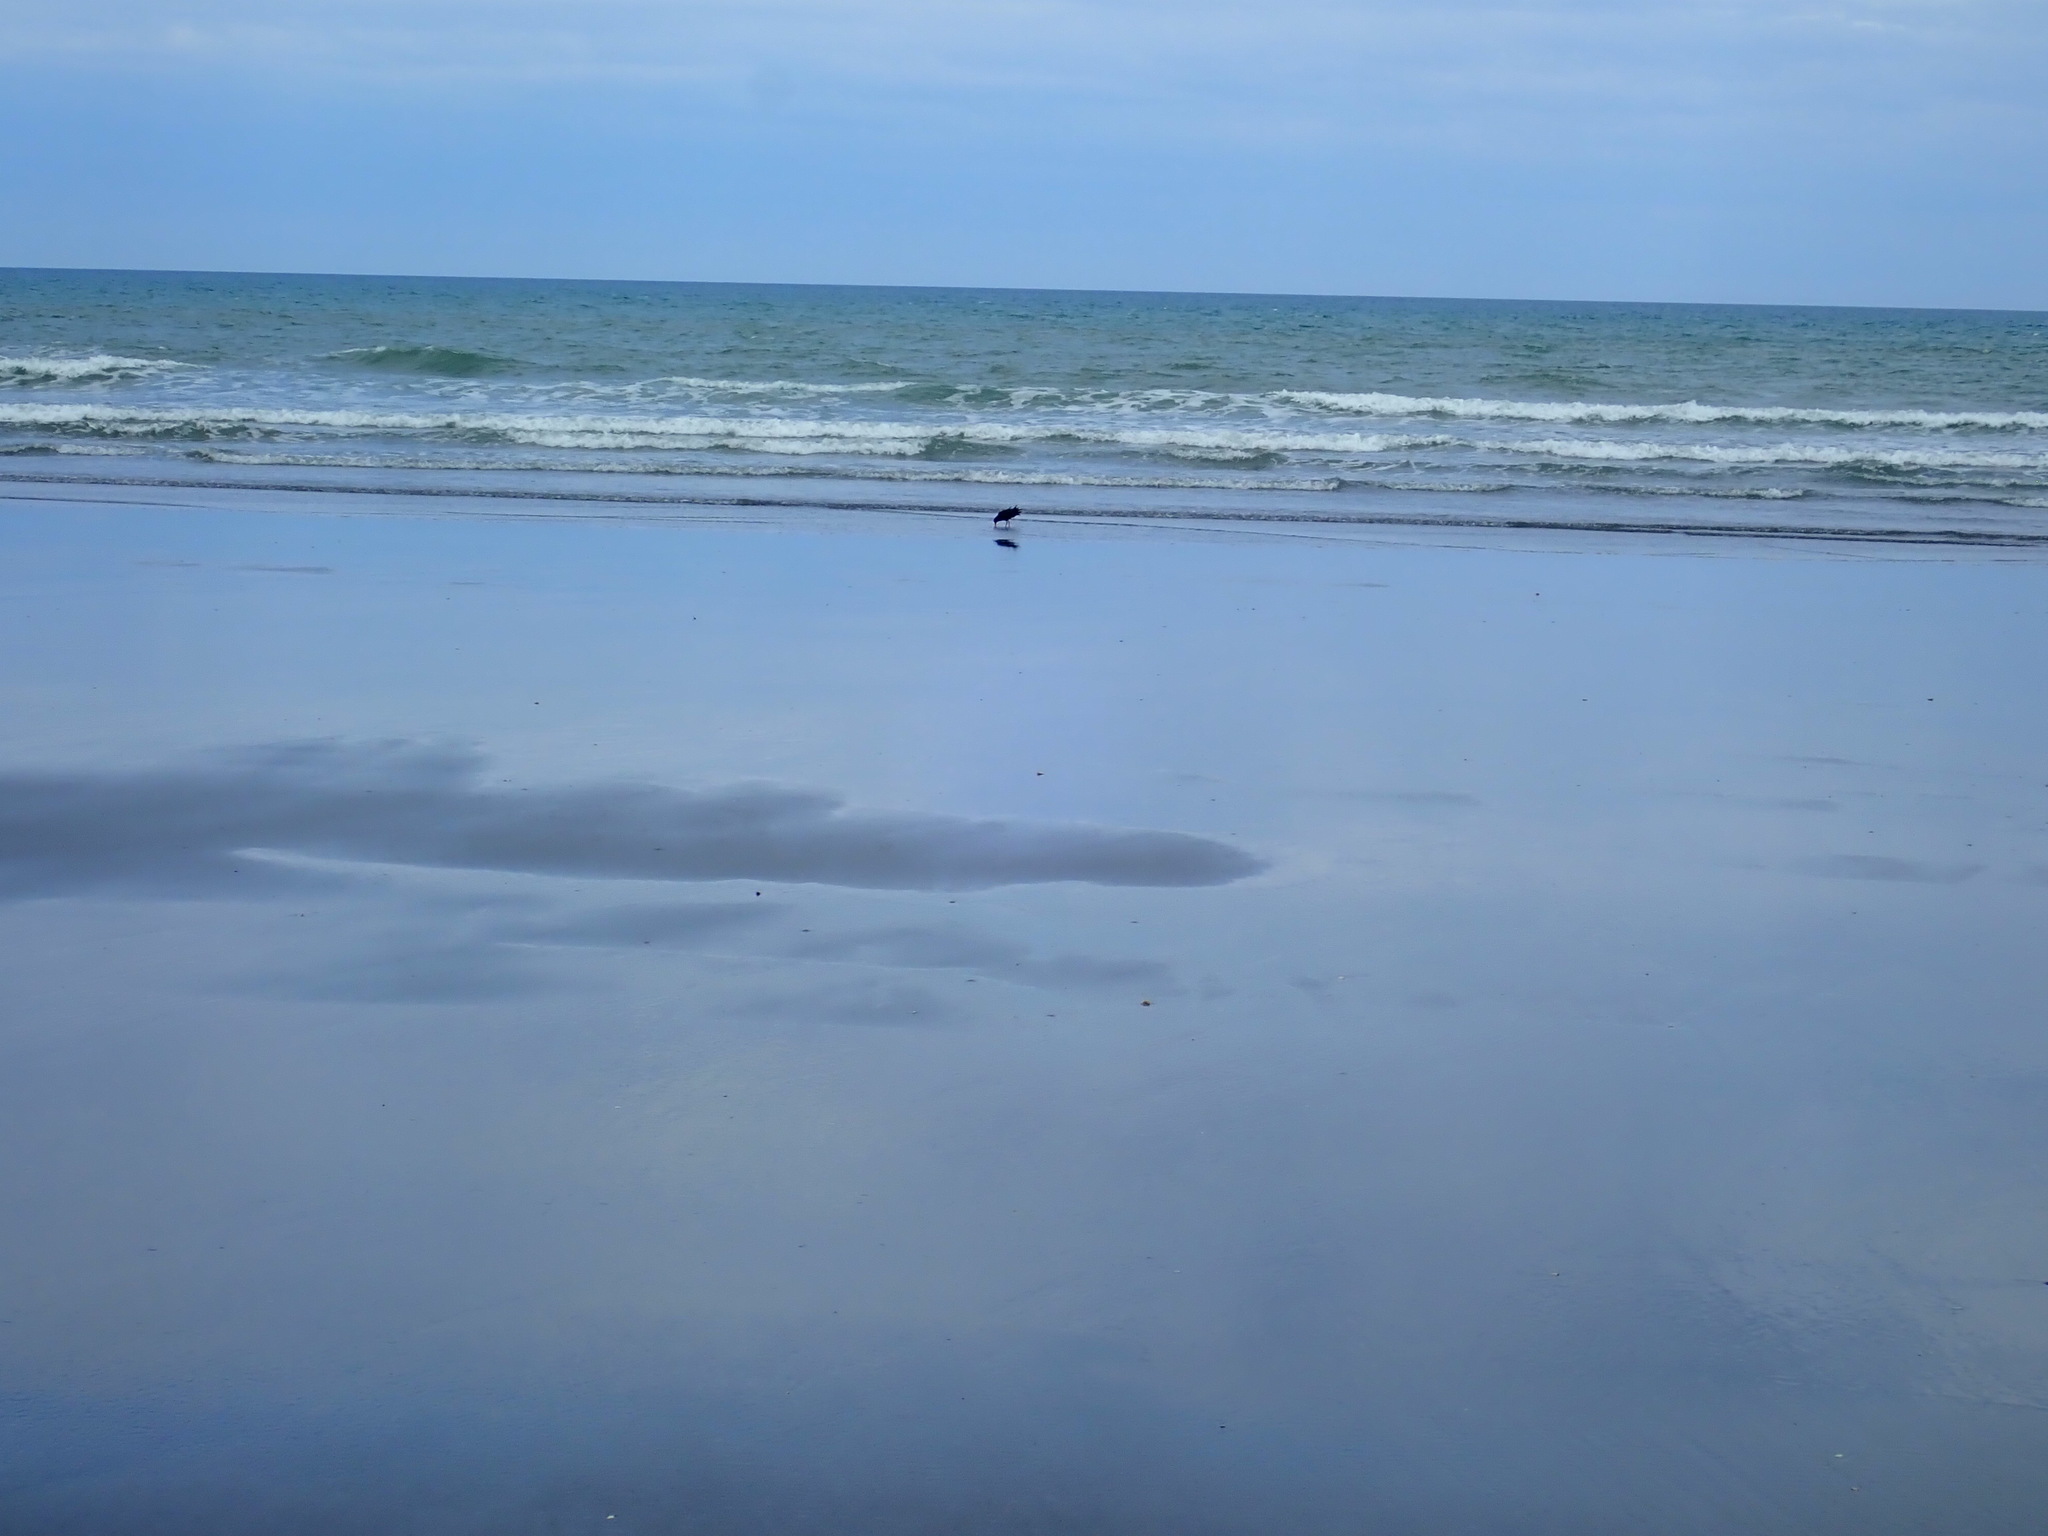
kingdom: Animalia
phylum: Chordata
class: Aves
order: Charadriiformes
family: Haematopodidae
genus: Haematopus
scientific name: Haematopus unicolor
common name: Variable oystercatcher
